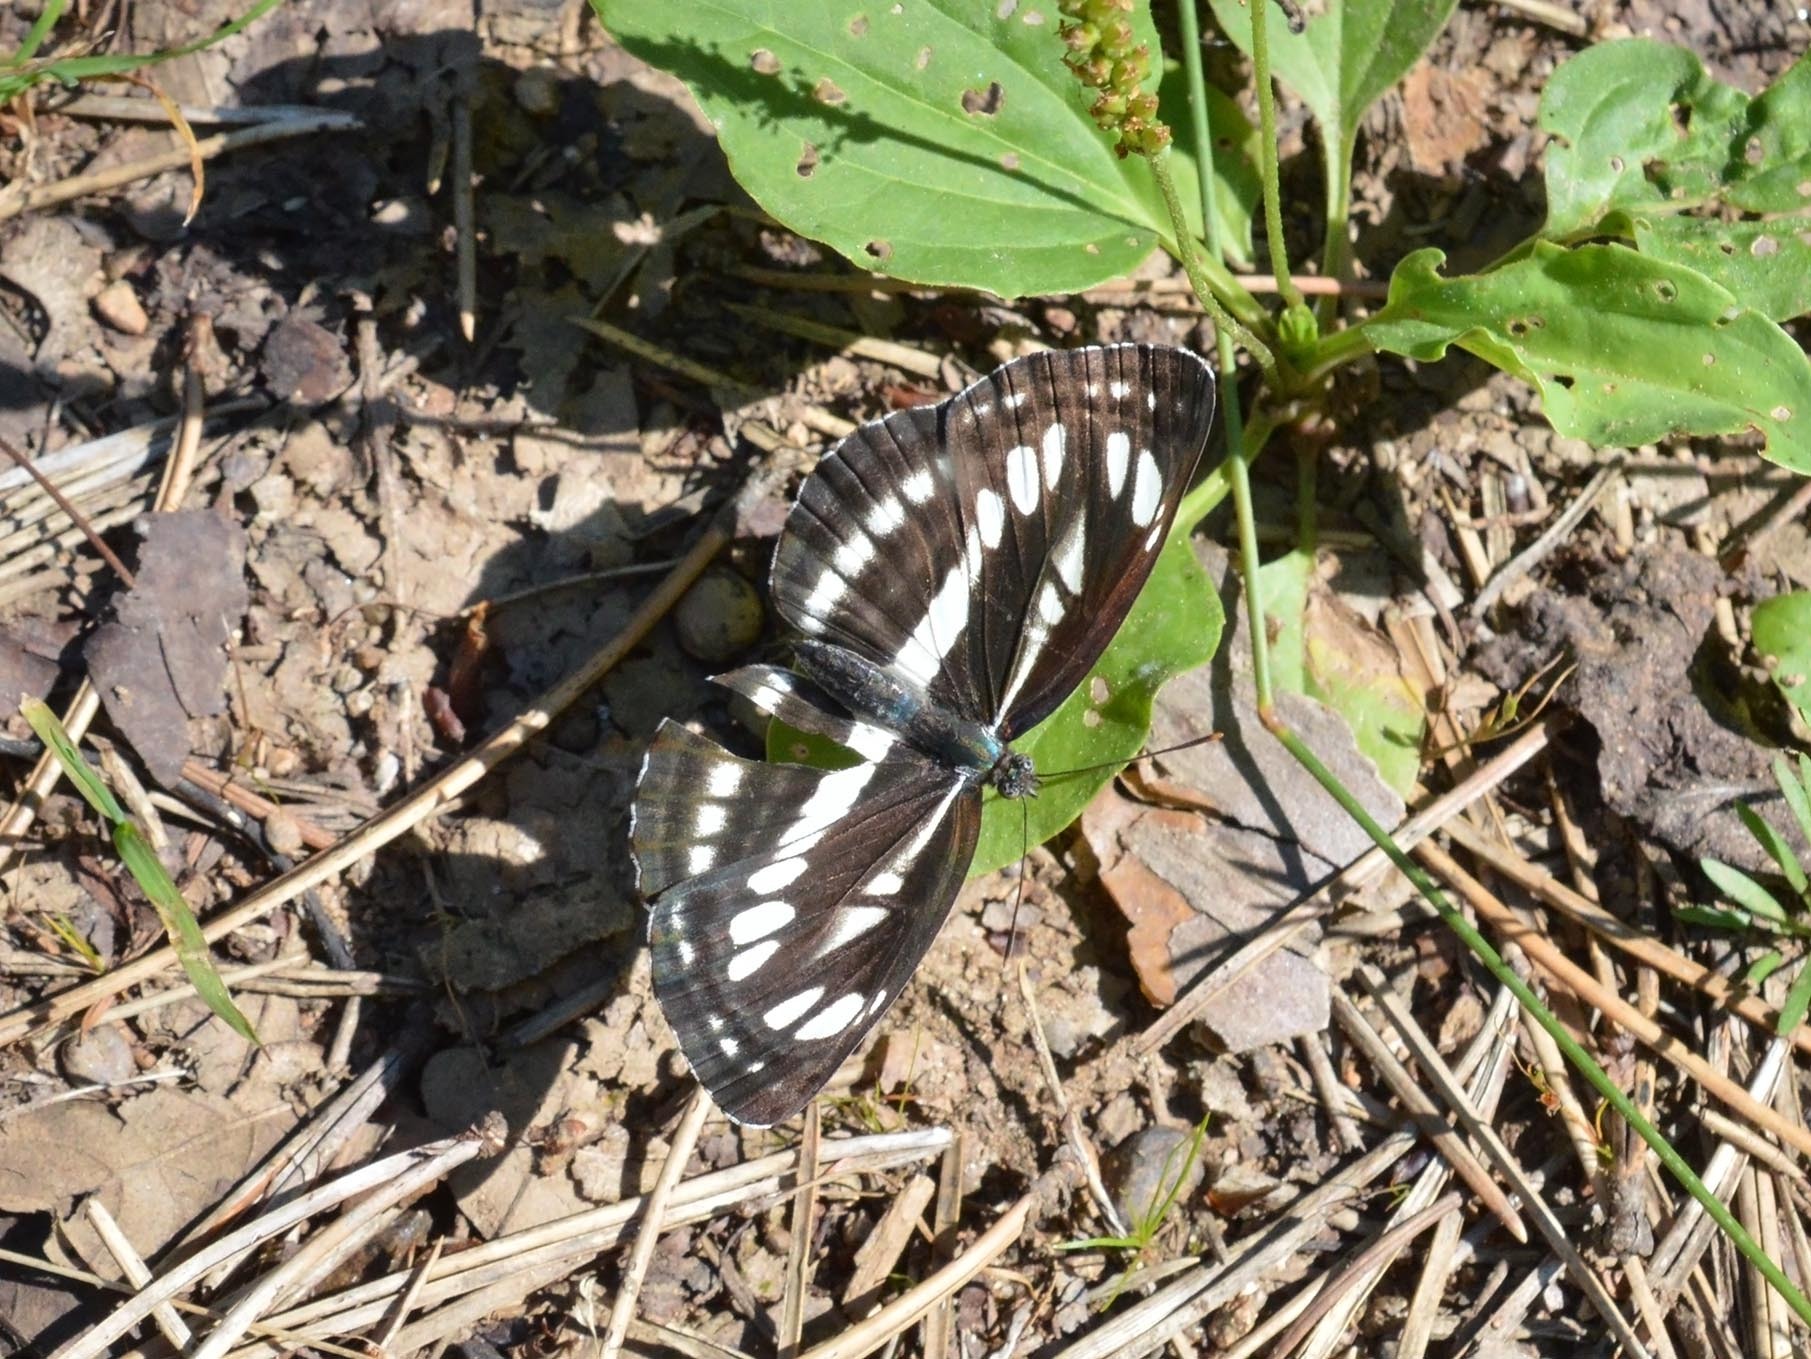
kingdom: Animalia
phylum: Arthropoda
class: Insecta
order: Lepidoptera
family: Nymphalidae
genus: Neptis
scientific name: Neptis sappho
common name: Common glider
